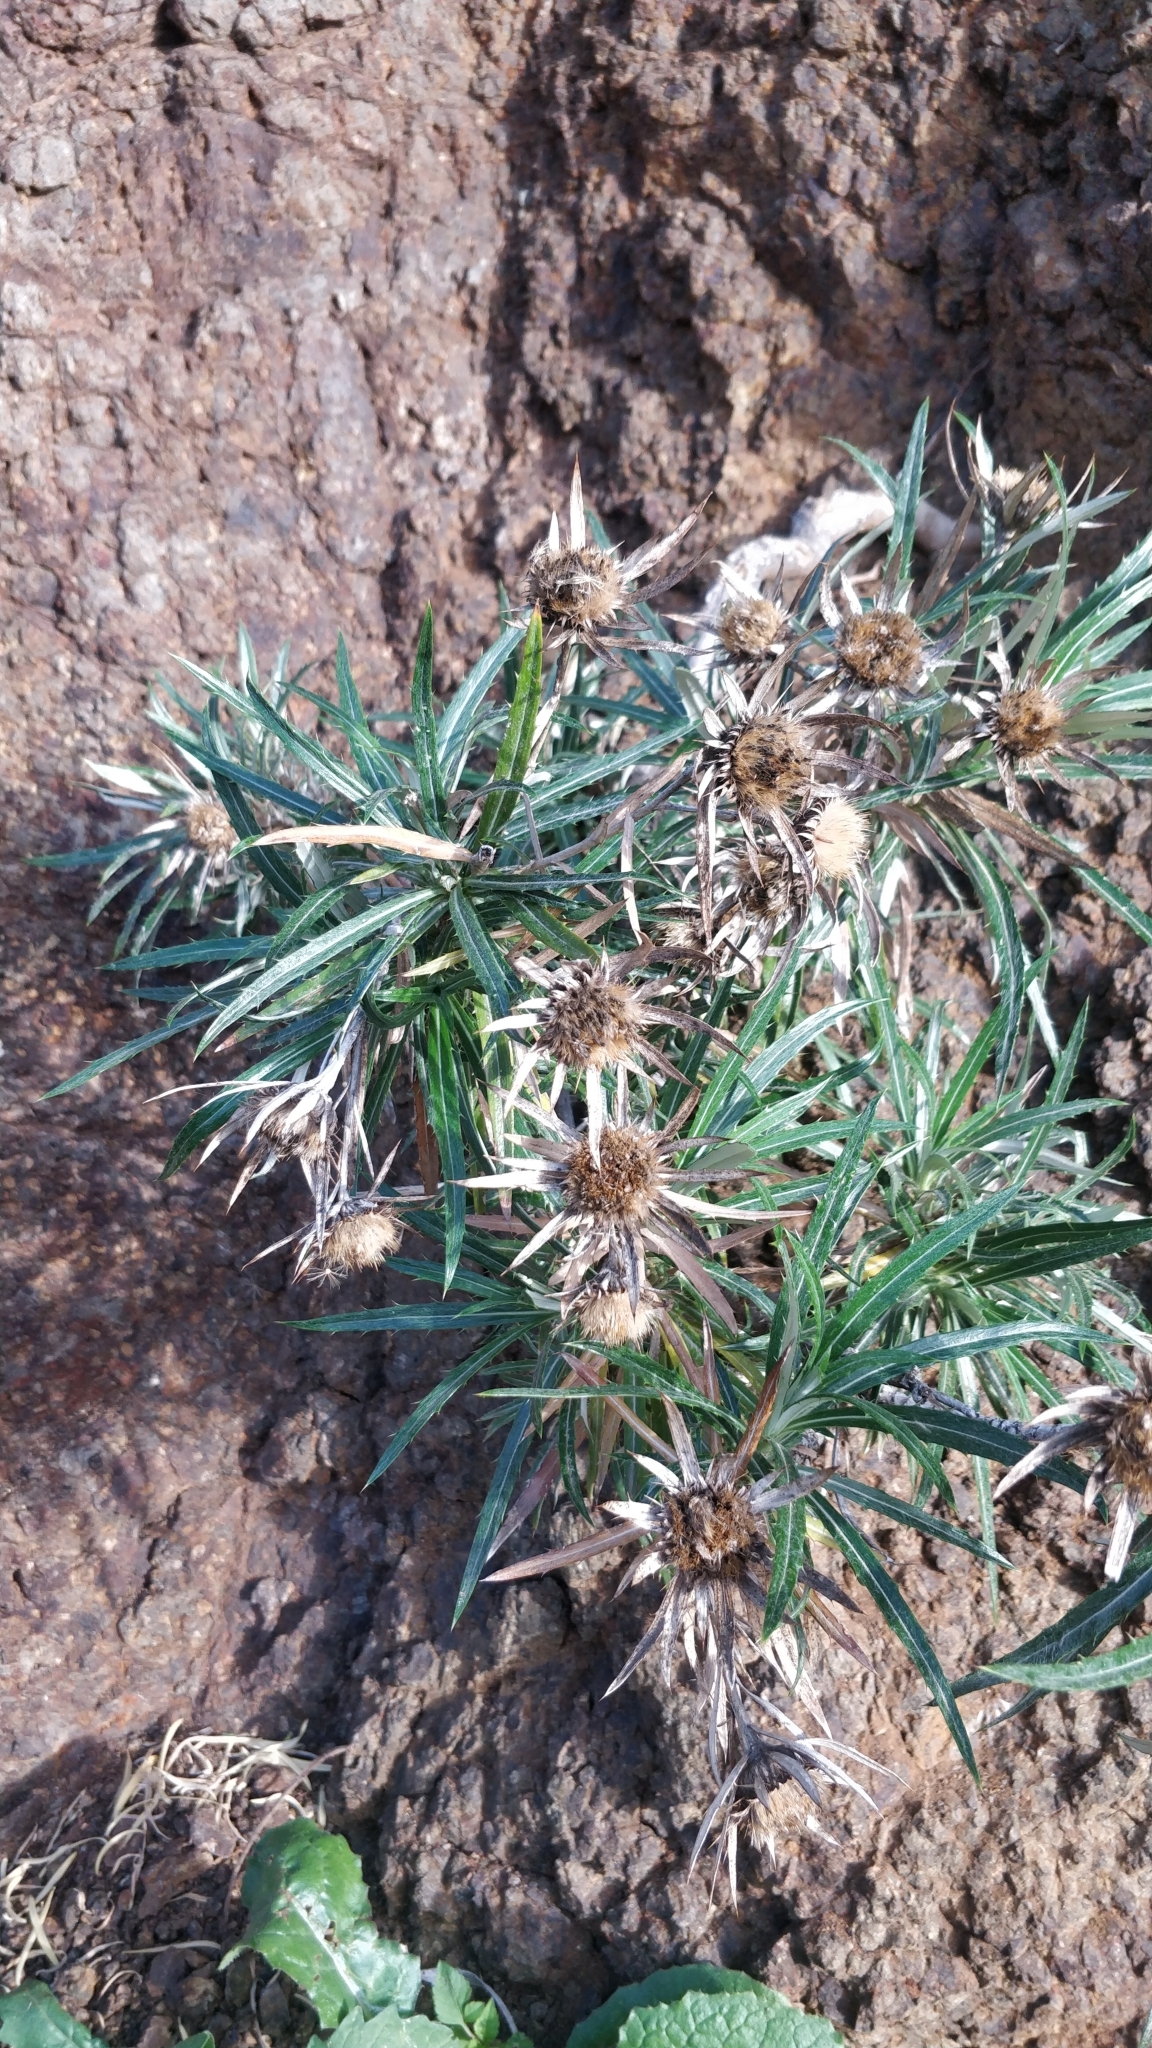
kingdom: Plantae
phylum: Tracheophyta
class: Magnoliopsida
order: Asterales
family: Asteraceae
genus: Carlina
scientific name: Carlina salicifolia
